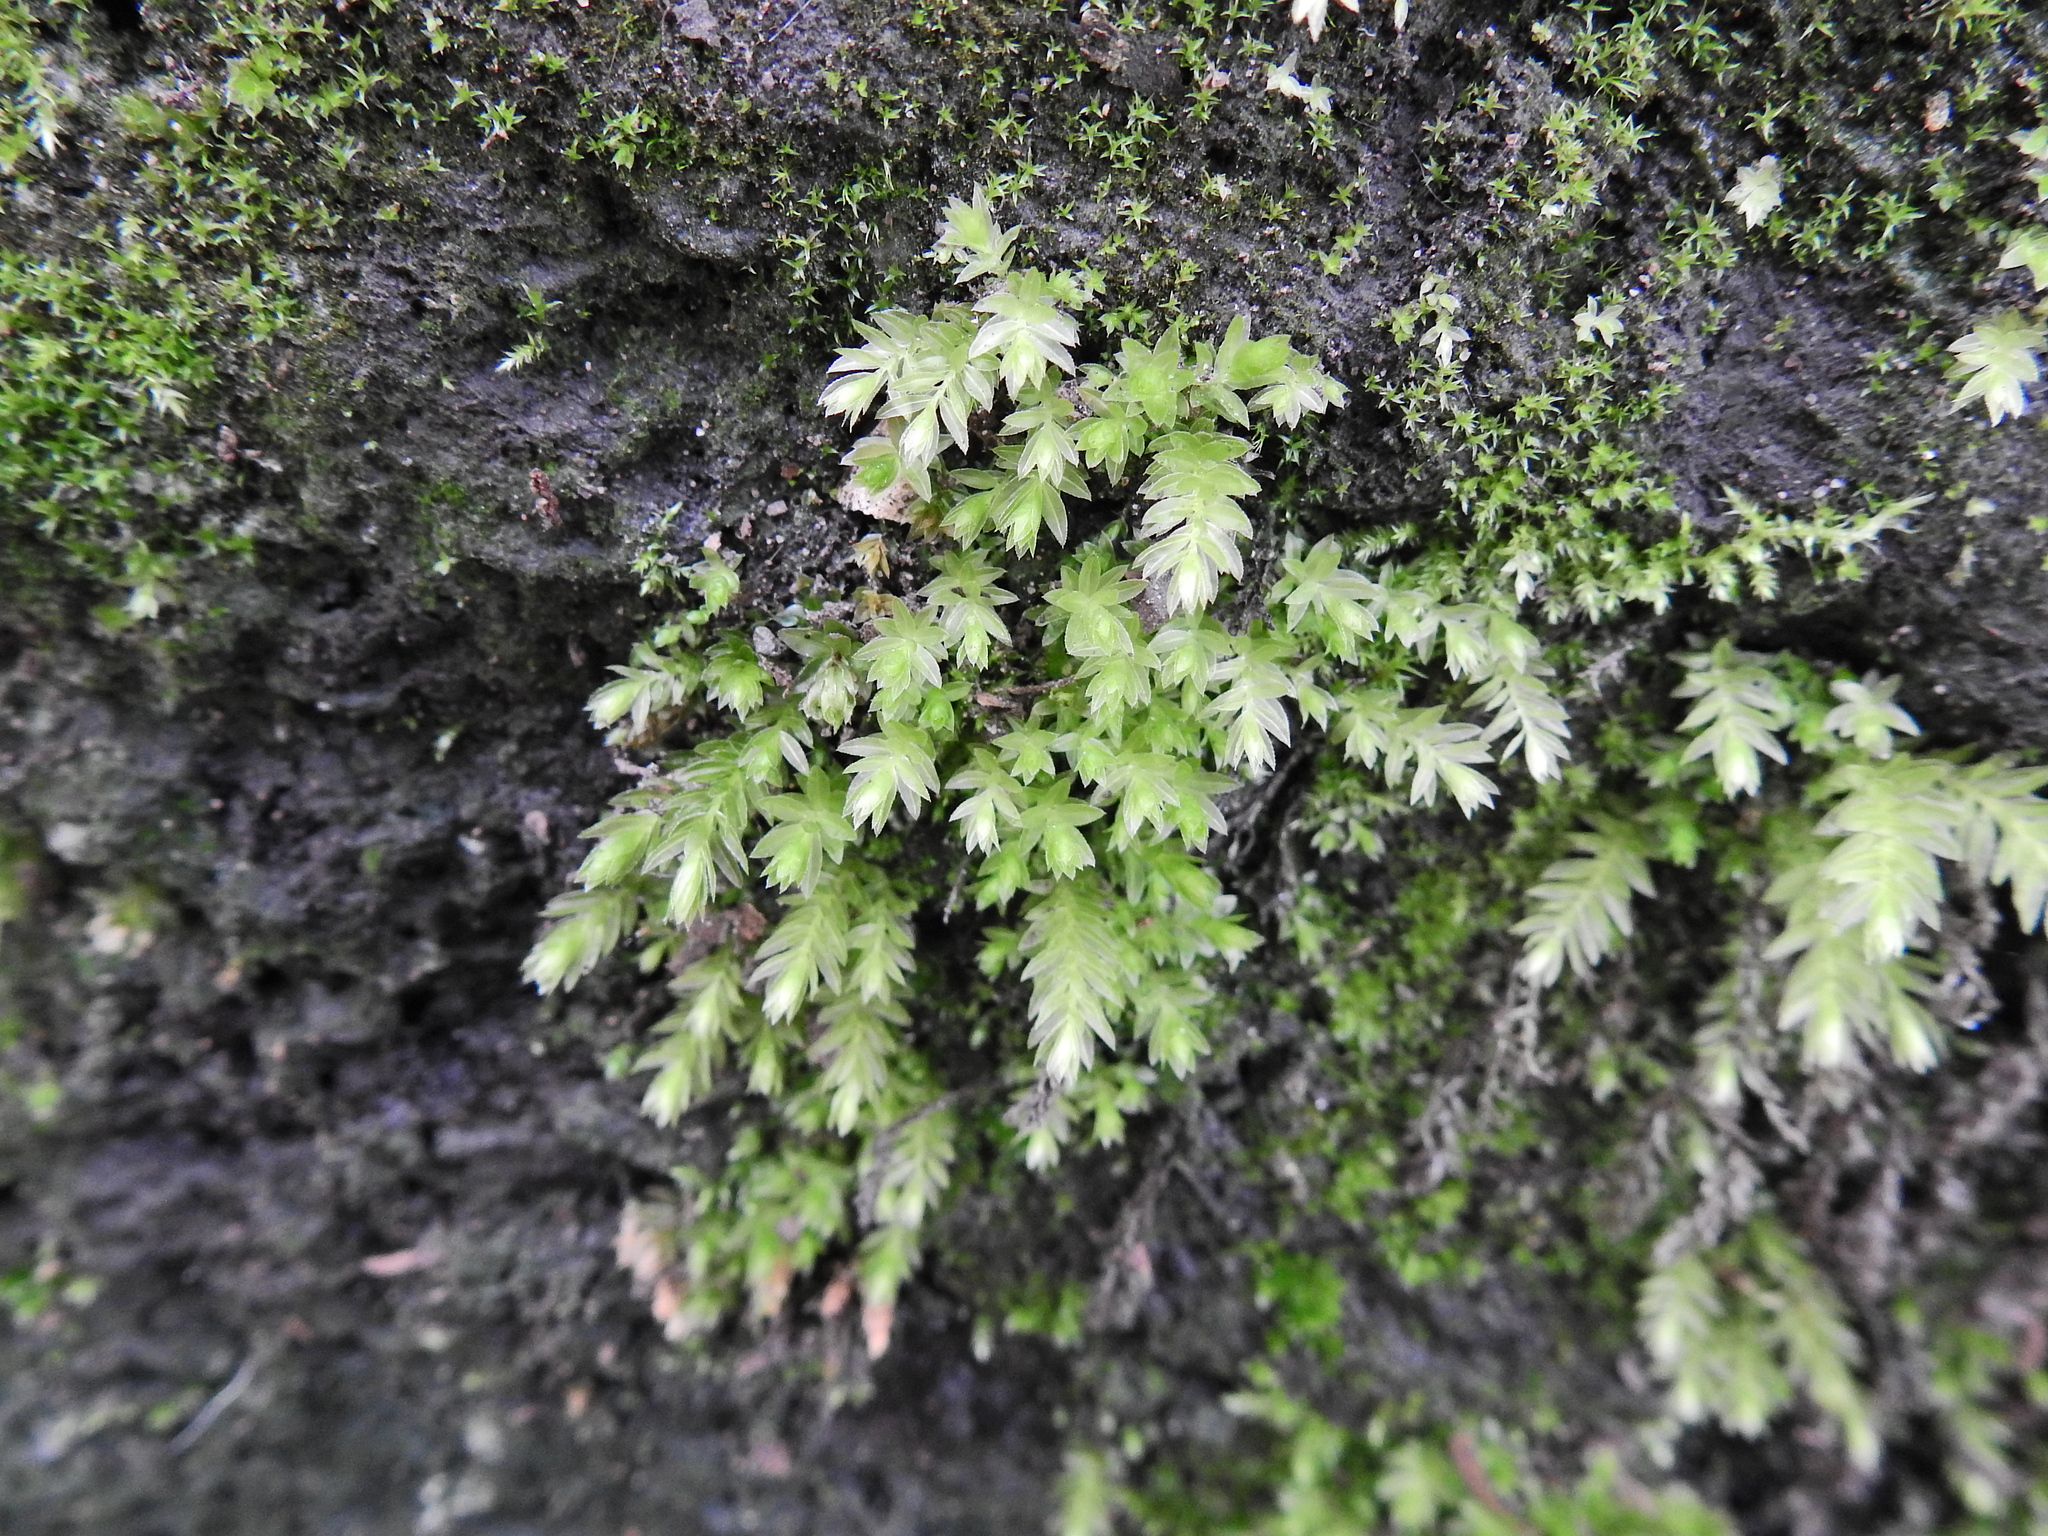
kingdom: Plantae
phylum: Bryophyta
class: Bryopsida
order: Bryales
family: Mniaceae
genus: Mnium
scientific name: Mnium hornum
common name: Swan's-neck leafy moss
